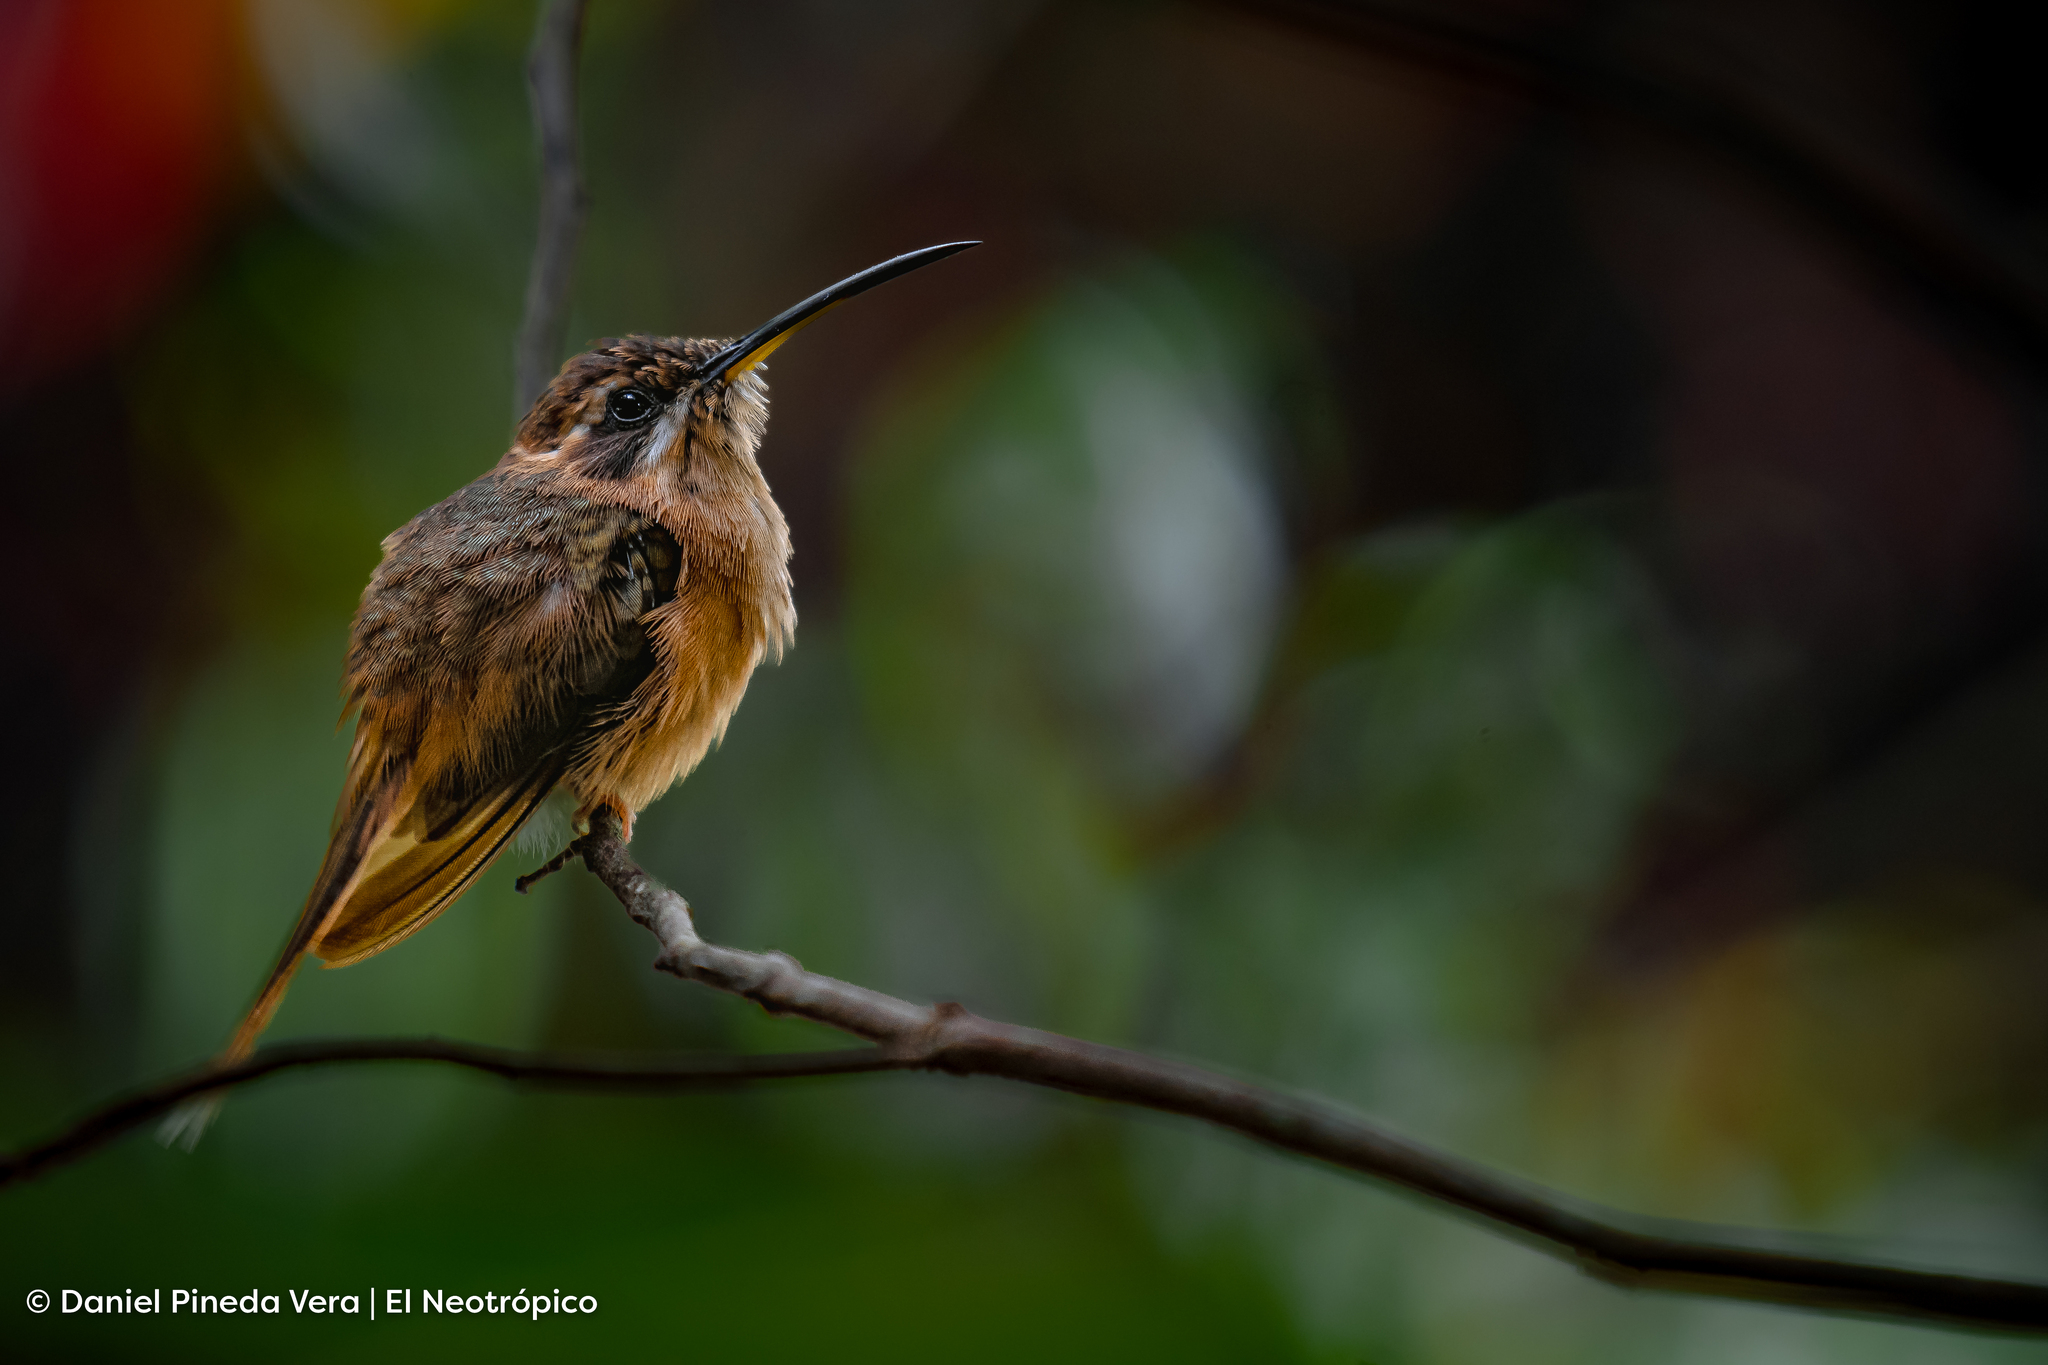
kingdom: Animalia
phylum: Chordata
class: Aves
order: Apodiformes
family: Trochilidae
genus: Phaethornis
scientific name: Phaethornis striigularis
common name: Stripe-throated hermit
